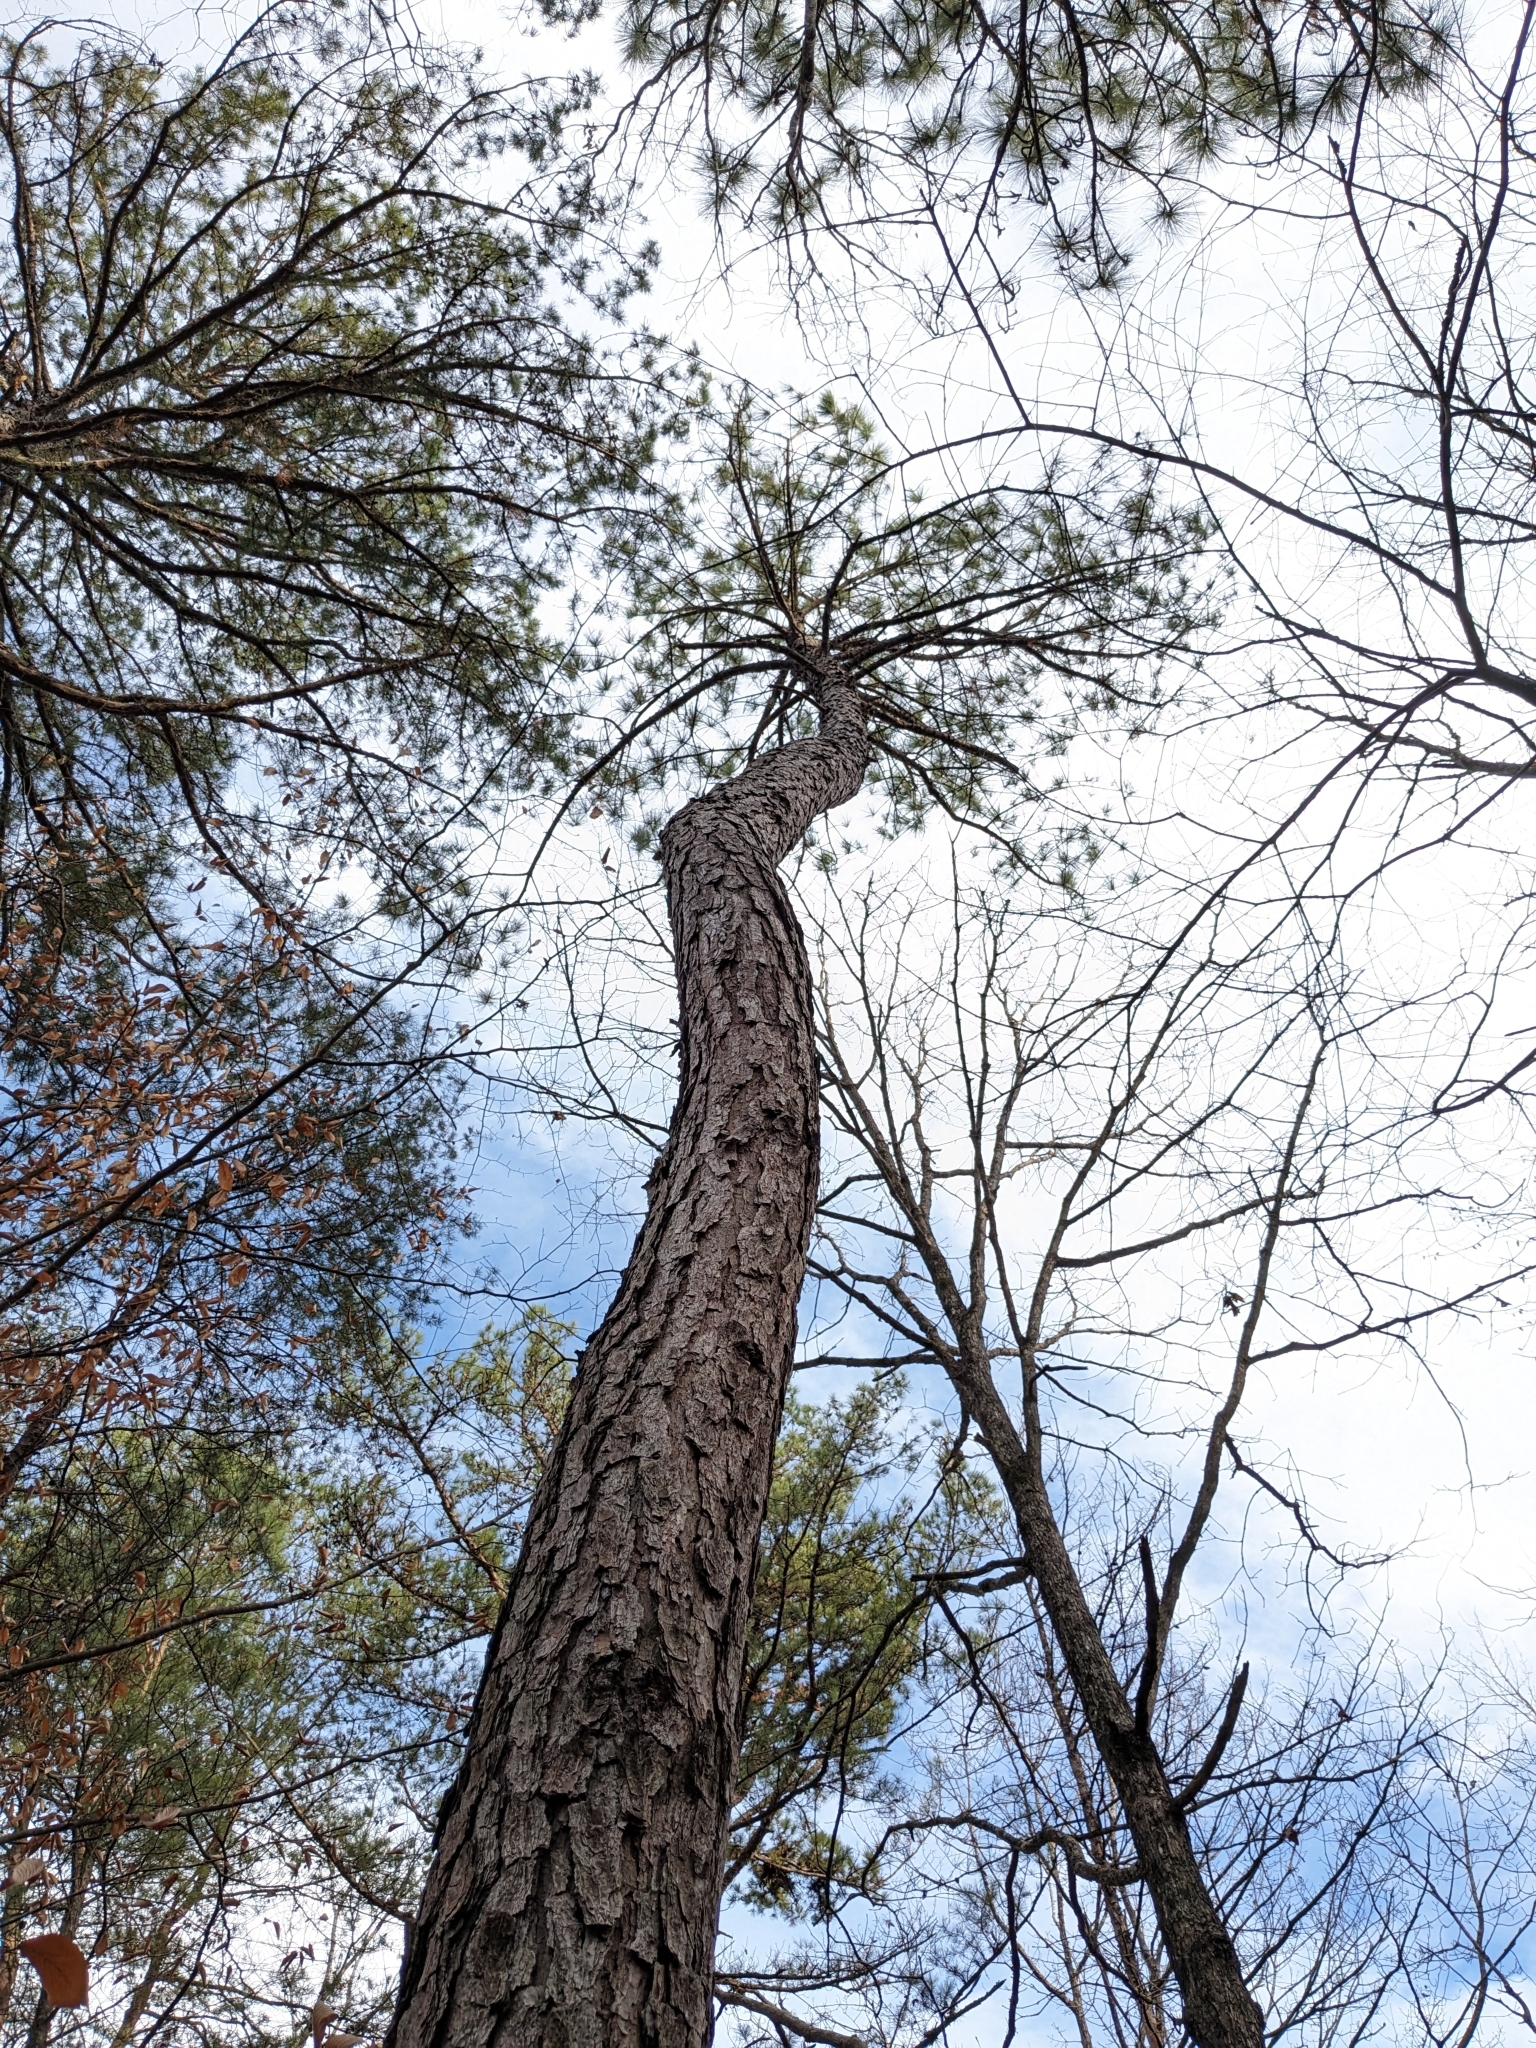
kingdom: Plantae
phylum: Tracheophyta
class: Pinopsida
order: Pinales
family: Pinaceae
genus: Pinus
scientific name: Pinus taeda
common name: Loblolly pine
